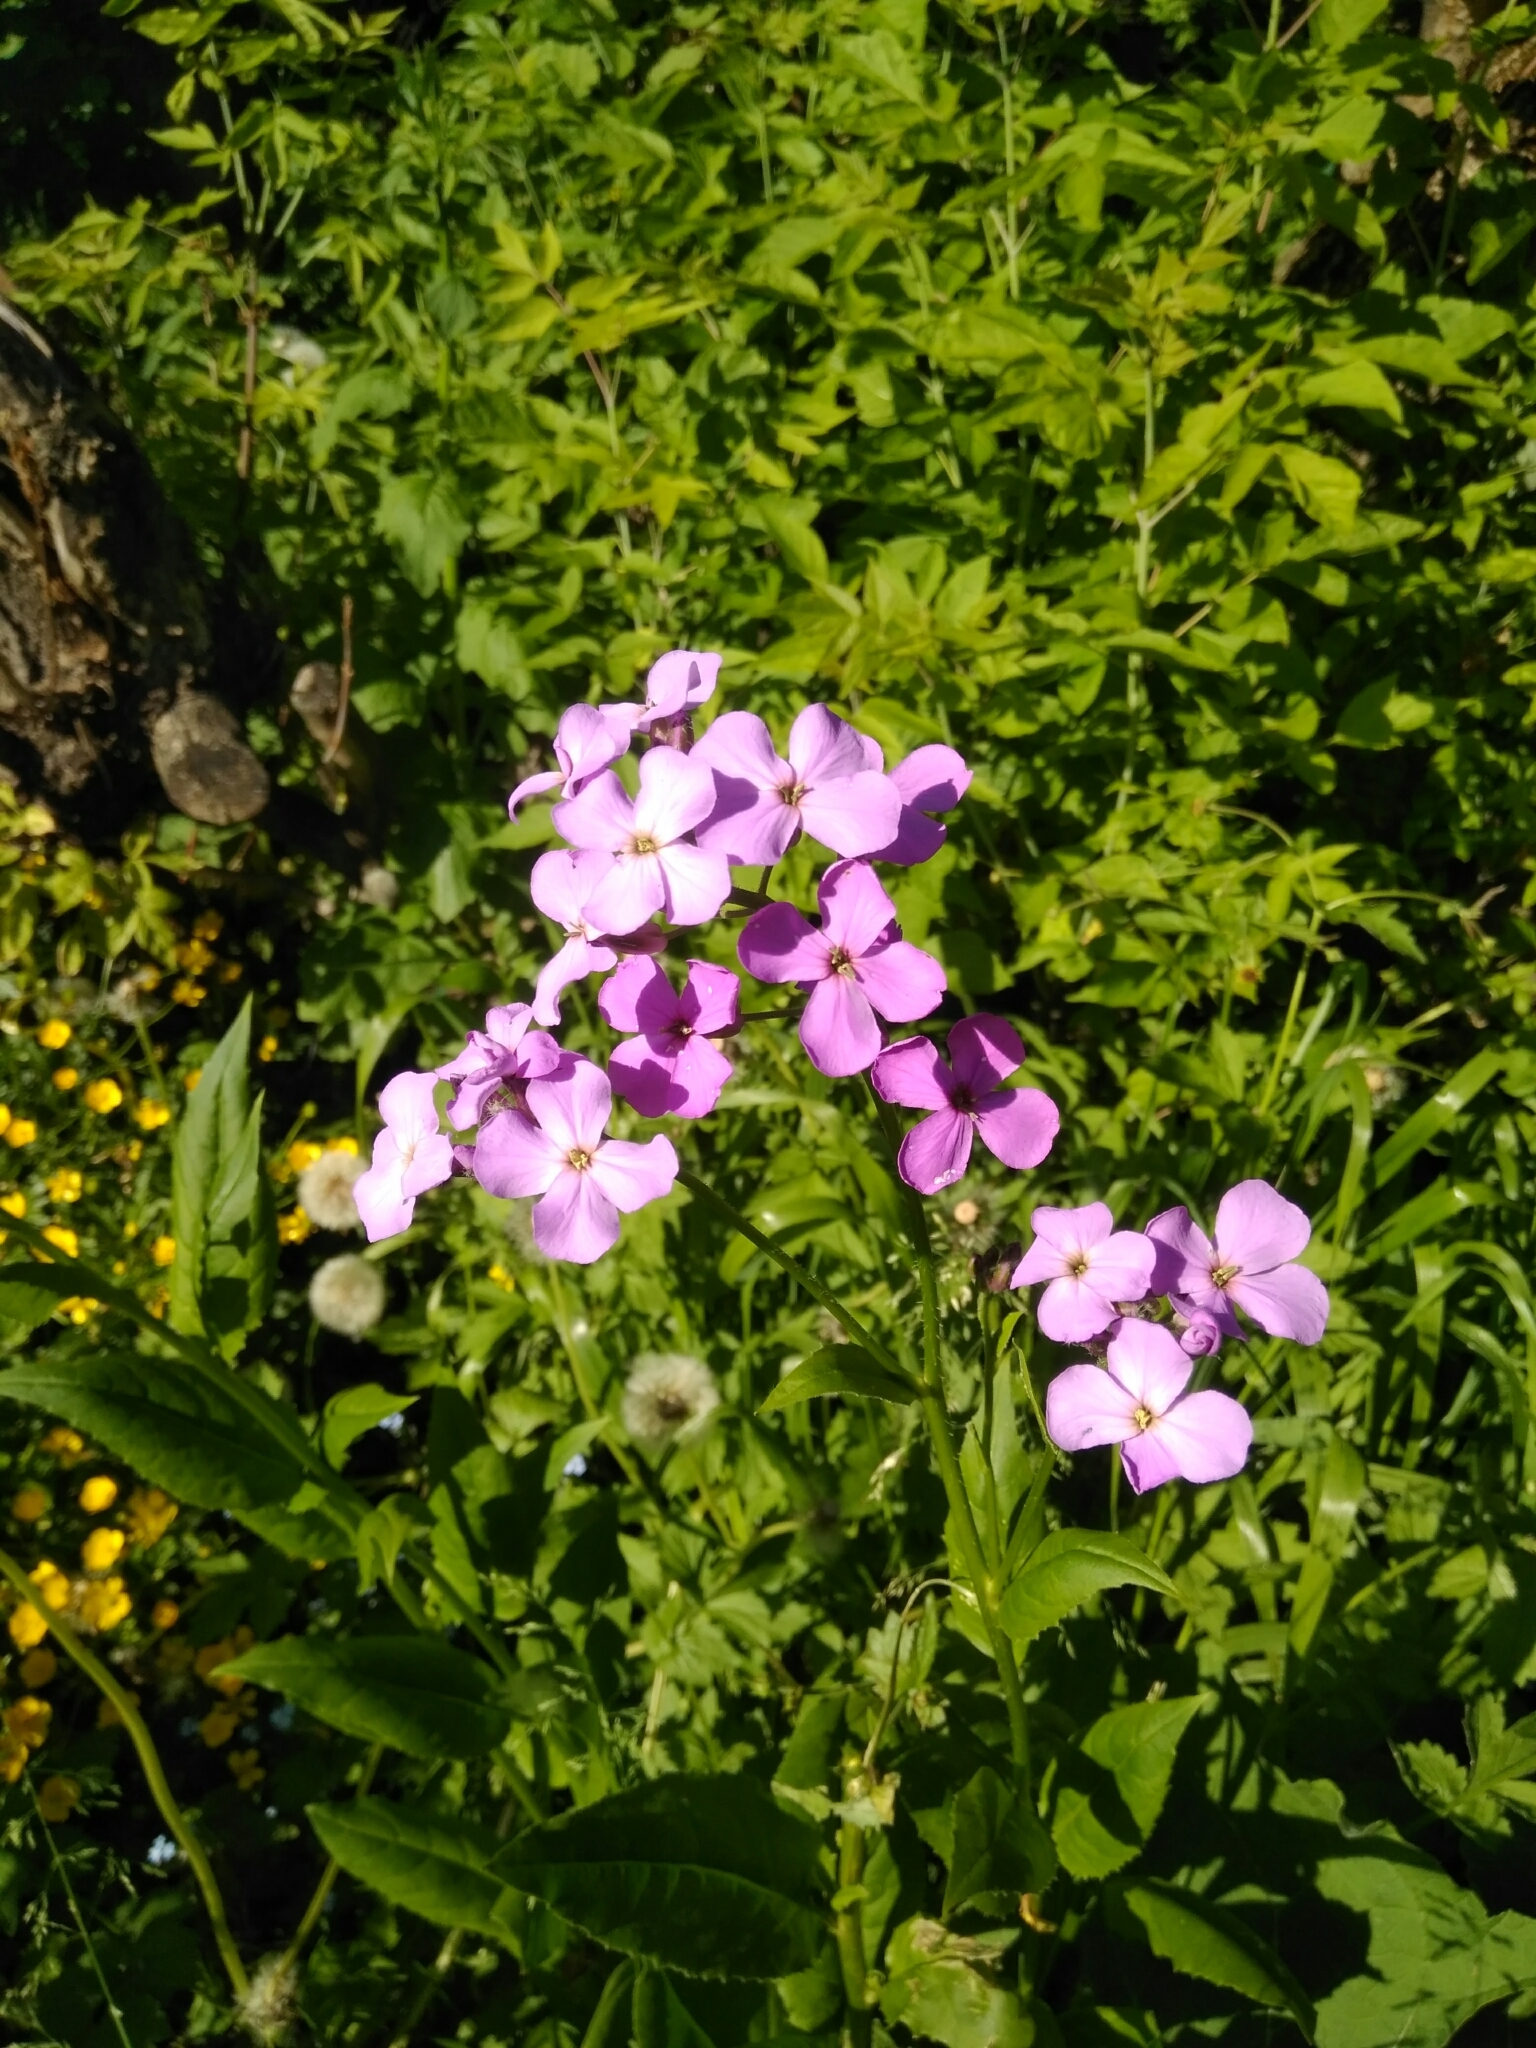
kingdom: Plantae
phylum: Tracheophyta
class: Magnoliopsida
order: Brassicales
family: Brassicaceae
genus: Hesperis
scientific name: Hesperis matronalis
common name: Dame's-violet
